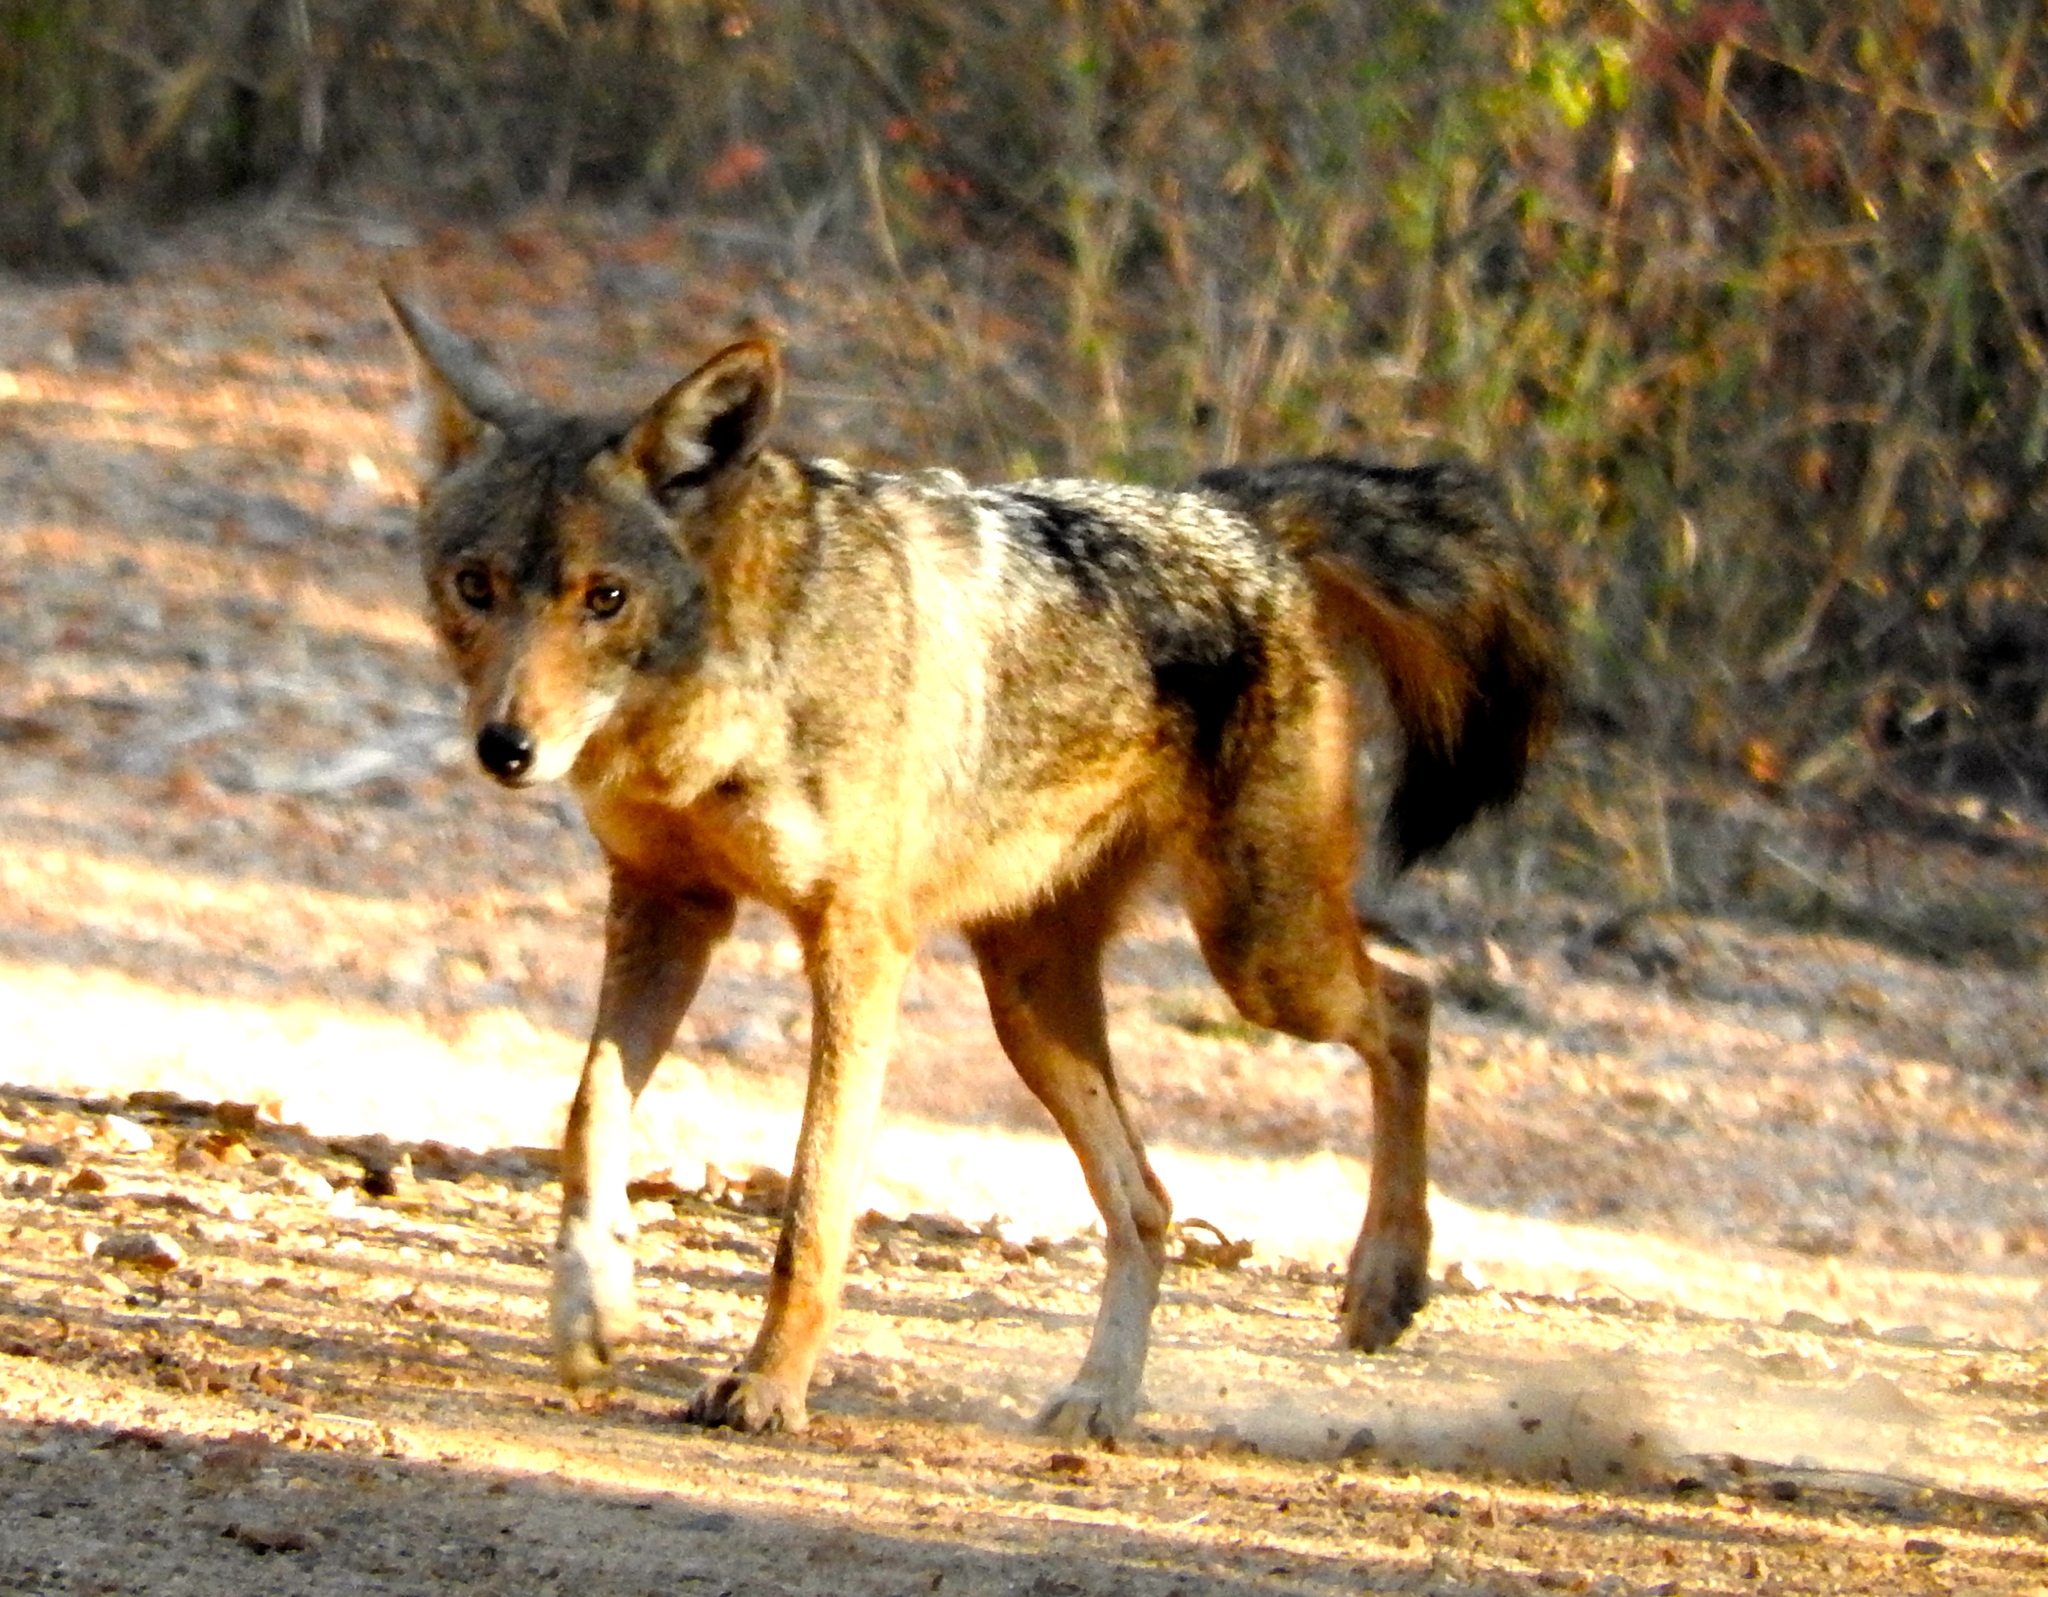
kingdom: Animalia
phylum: Chordata
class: Mammalia
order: Carnivora
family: Canidae
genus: Canis
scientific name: Canis latrans
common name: Coyote
